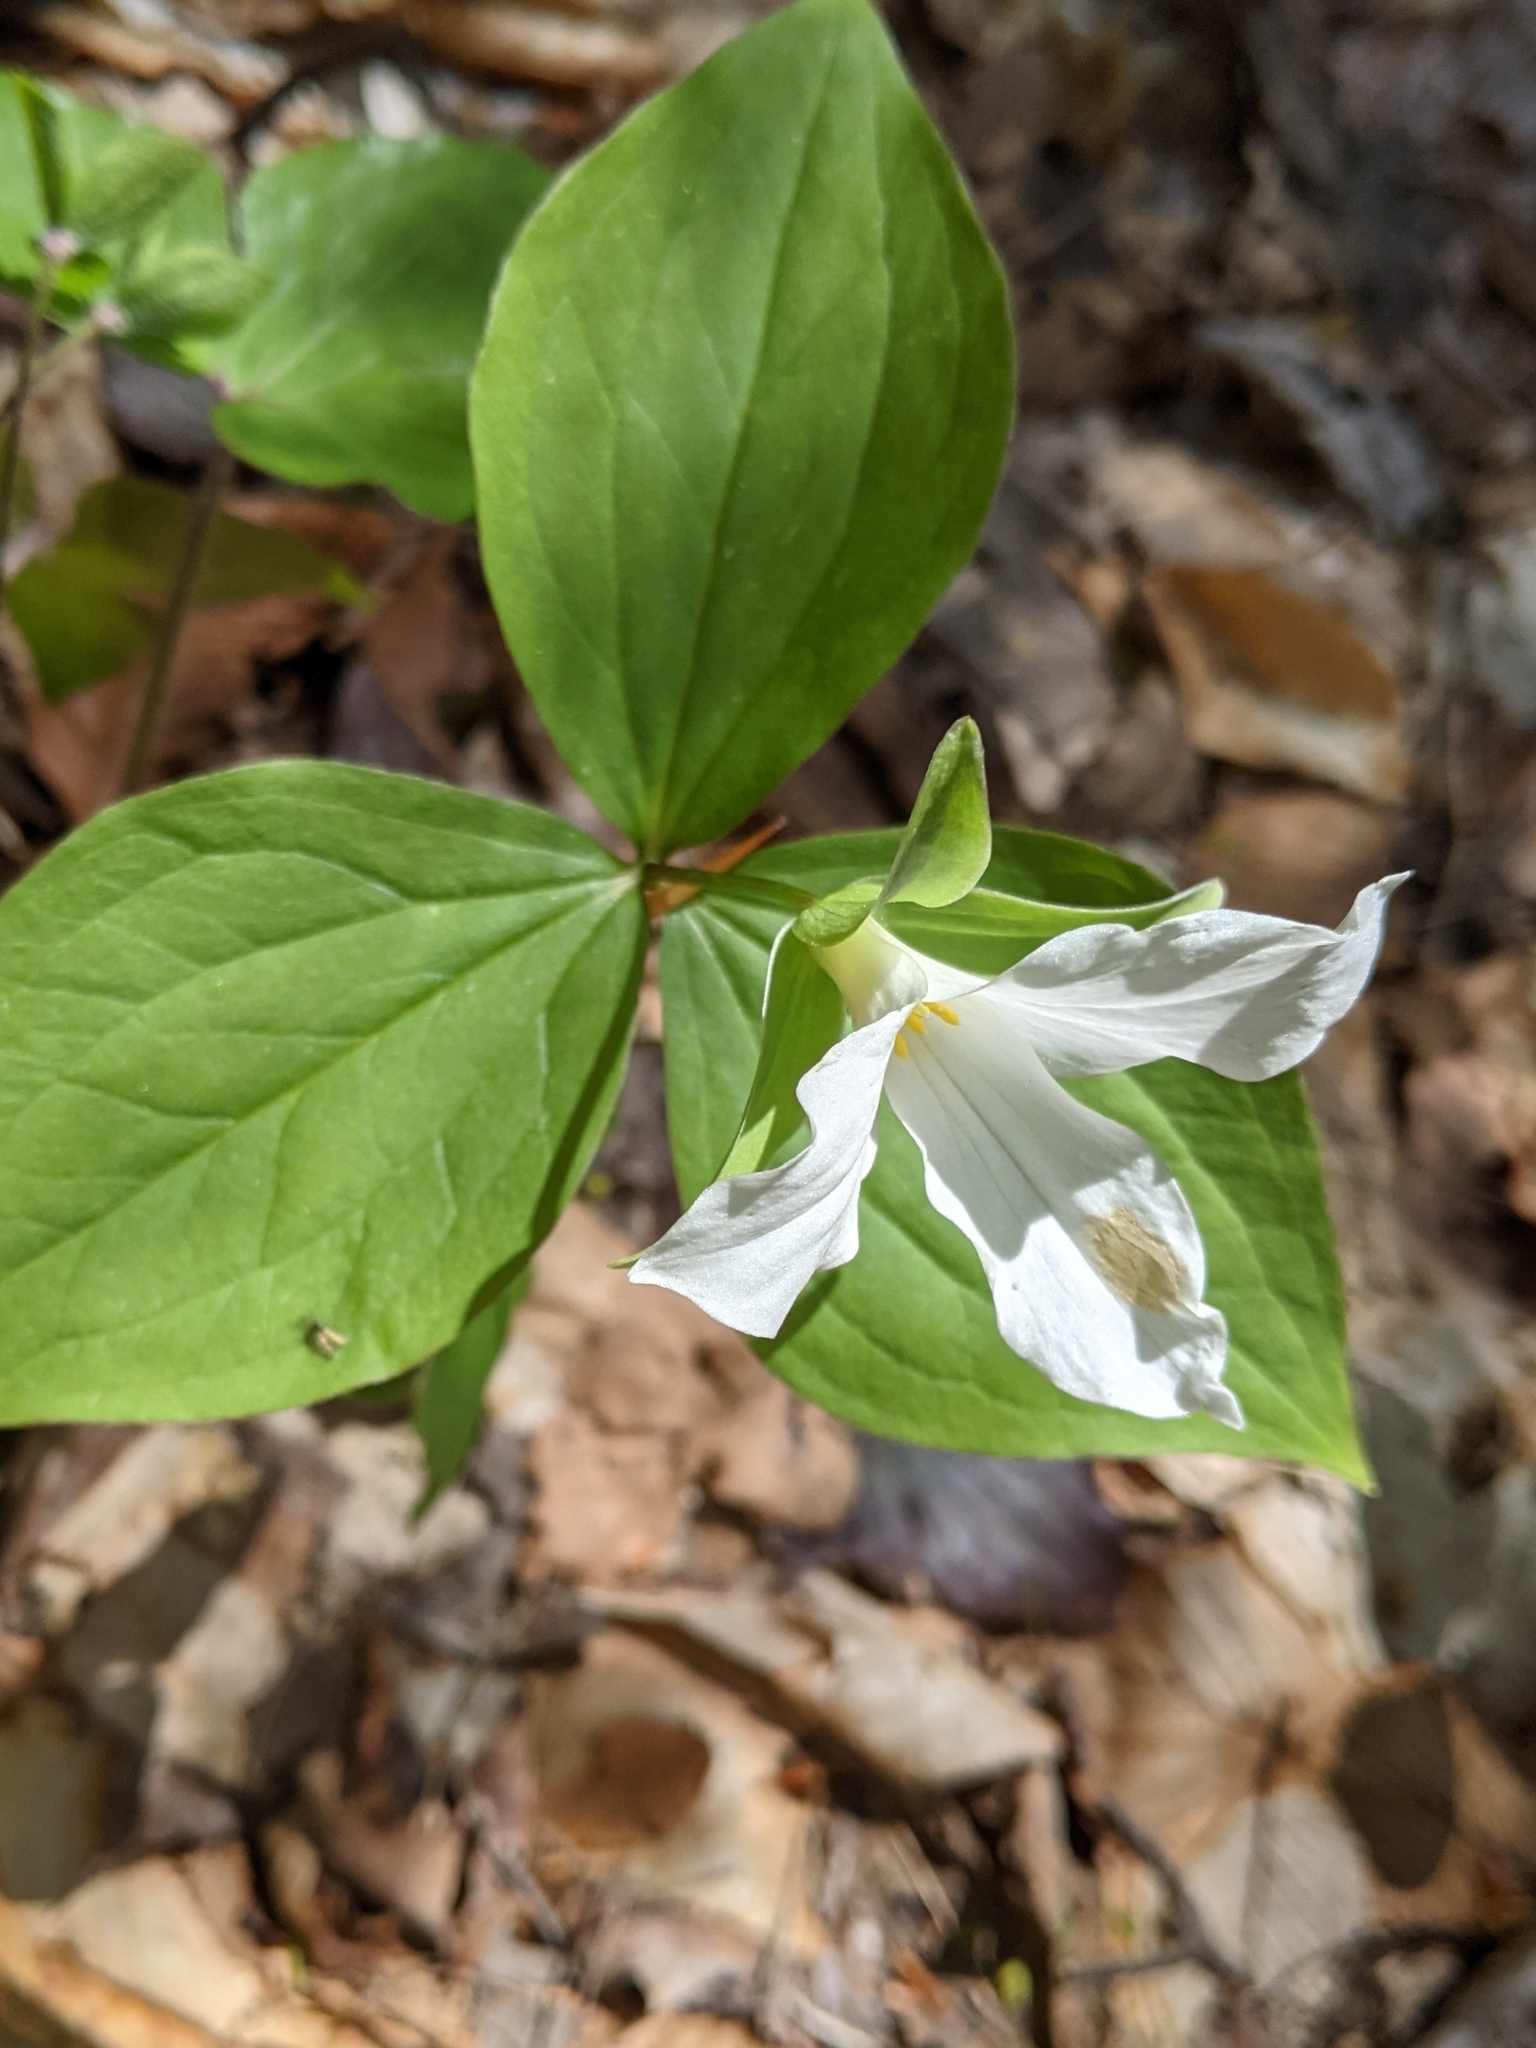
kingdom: Plantae
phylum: Tracheophyta
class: Liliopsida
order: Liliales
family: Melanthiaceae
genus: Trillium
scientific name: Trillium grandiflorum
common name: Great white trillium
